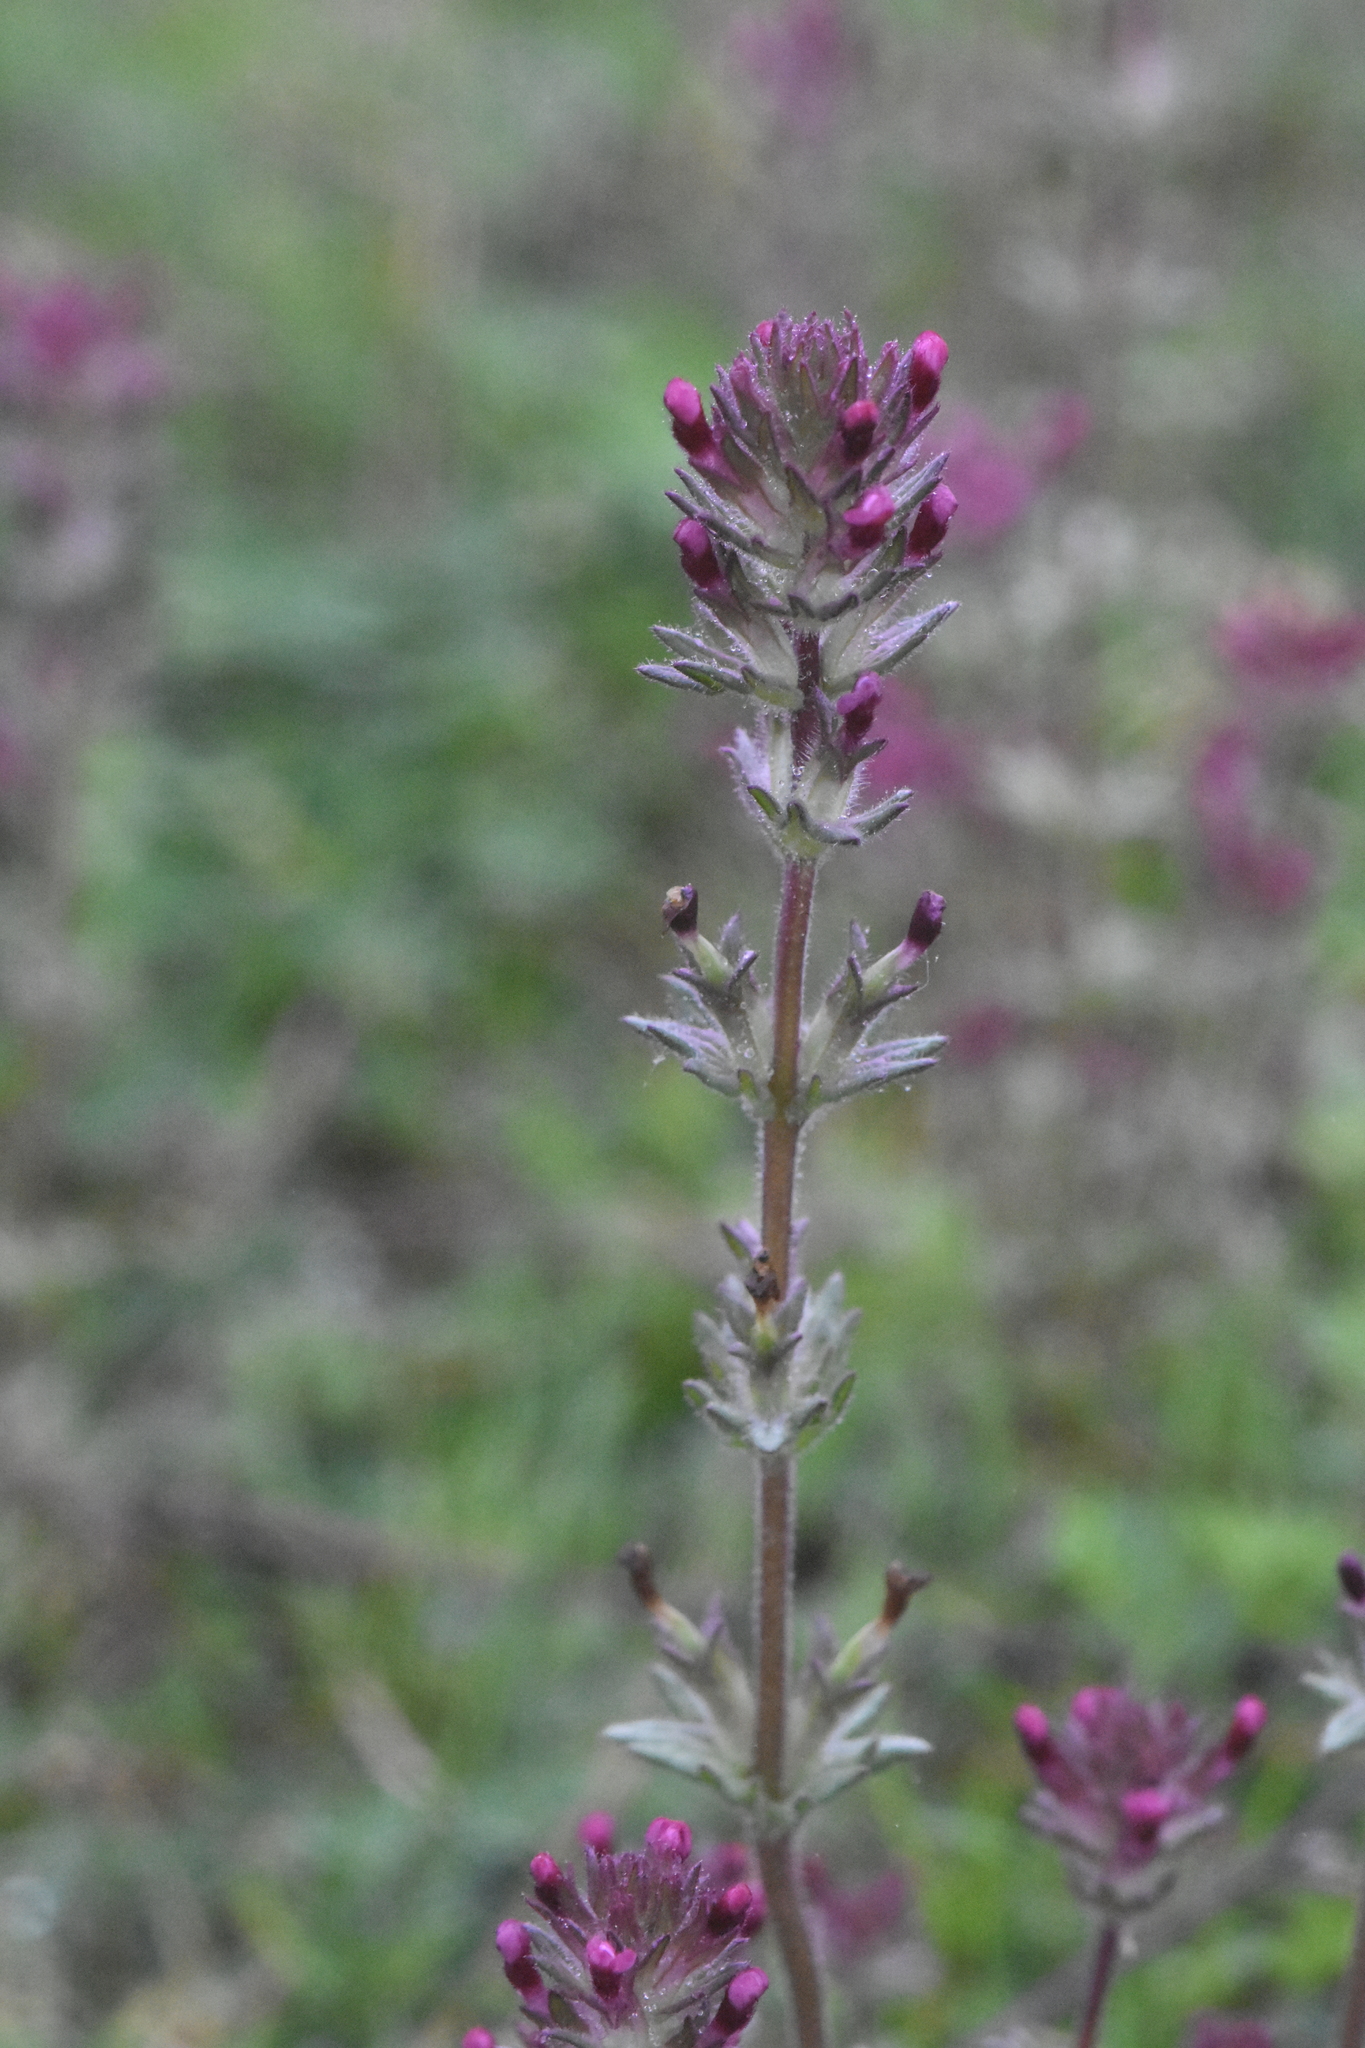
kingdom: Plantae
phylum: Tracheophyta
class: Magnoliopsida
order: Lamiales
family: Orobanchaceae
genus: Parentucellia
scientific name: Parentucellia latifolia
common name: Broadleaf glandweed
